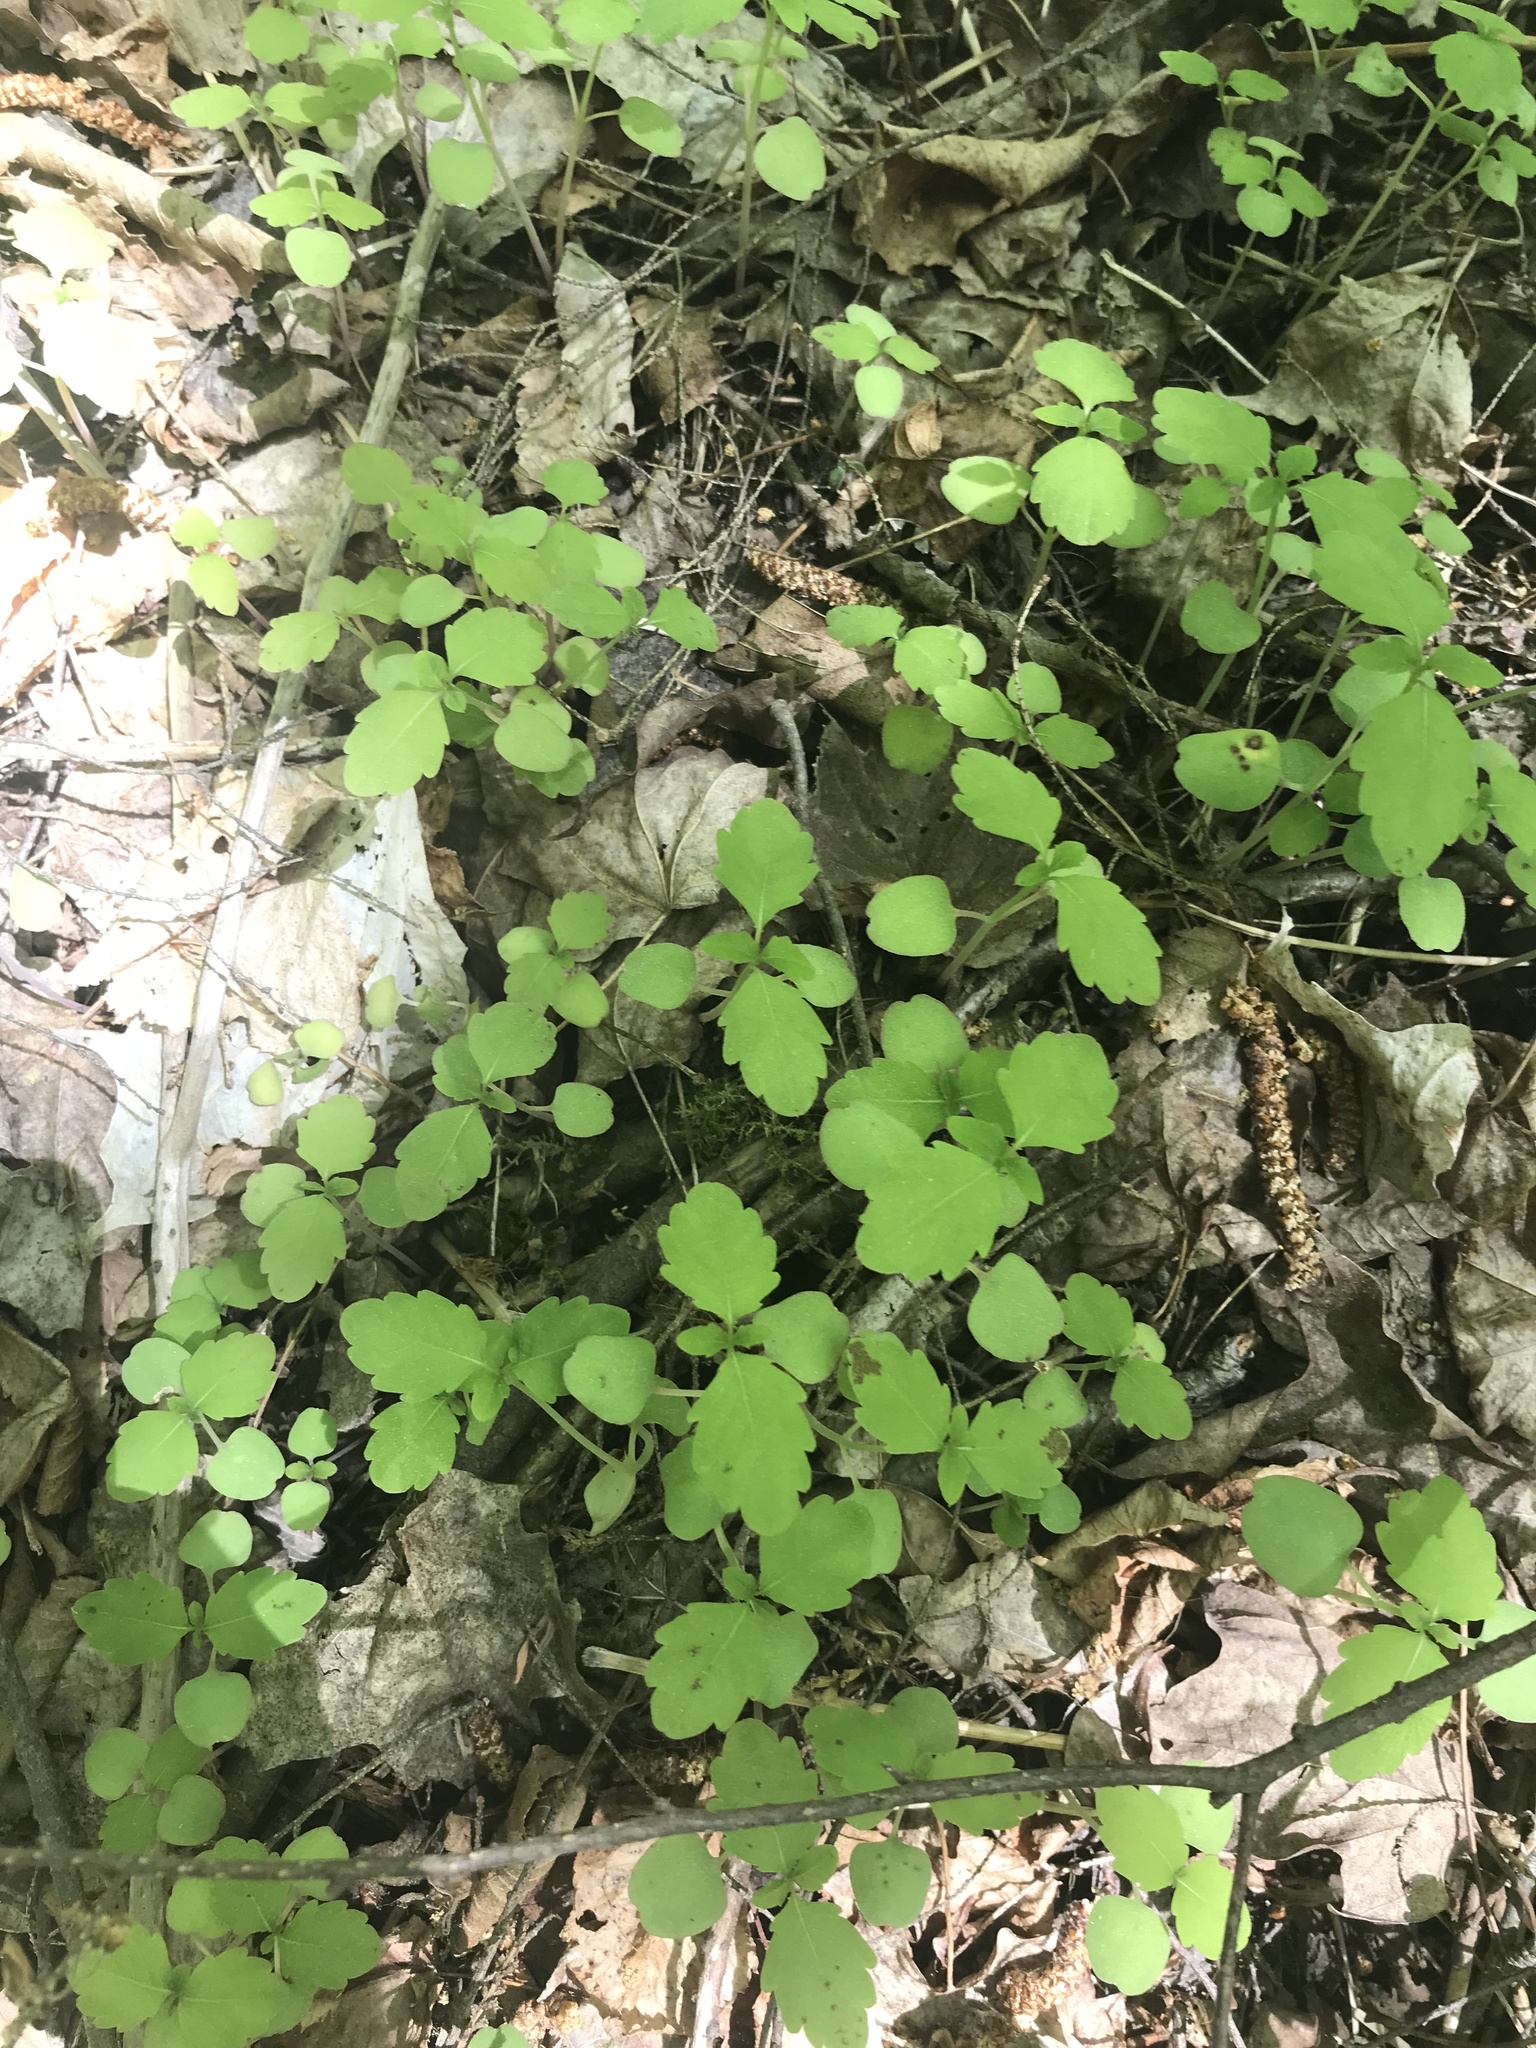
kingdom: Plantae
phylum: Tracheophyta
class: Magnoliopsida
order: Ericales
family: Balsaminaceae
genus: Impatiens
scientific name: Impatiens capensis
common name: Orange balsam
